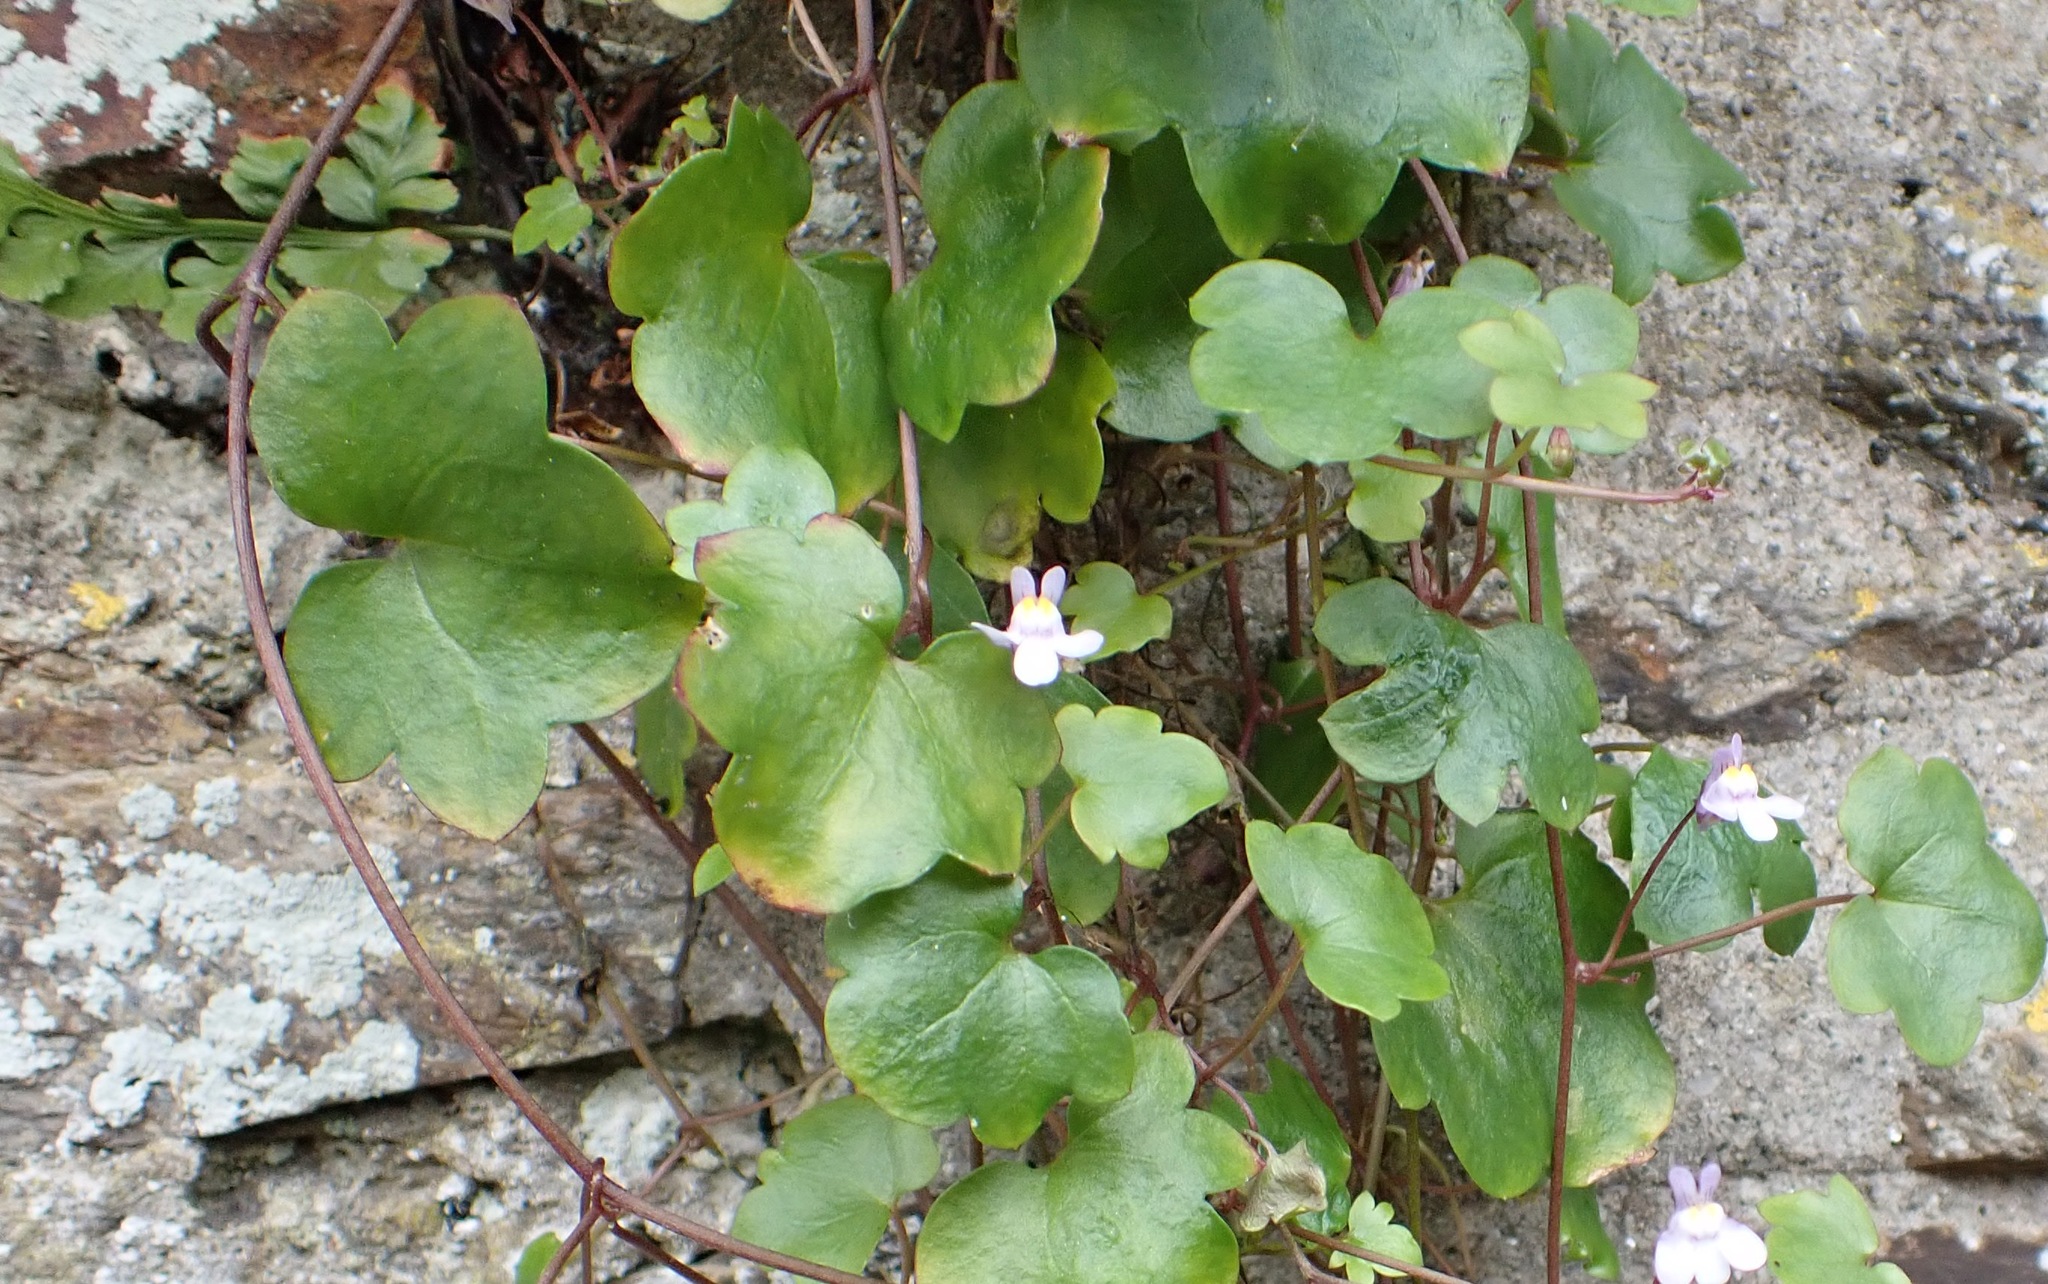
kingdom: Plantae
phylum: Tracheophyta
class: Magnoliopsida
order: Lamiales
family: Plantaginaceae
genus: Cymbalaria
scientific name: Cymbalaria muralis
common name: Ivy-leaved toadflax
